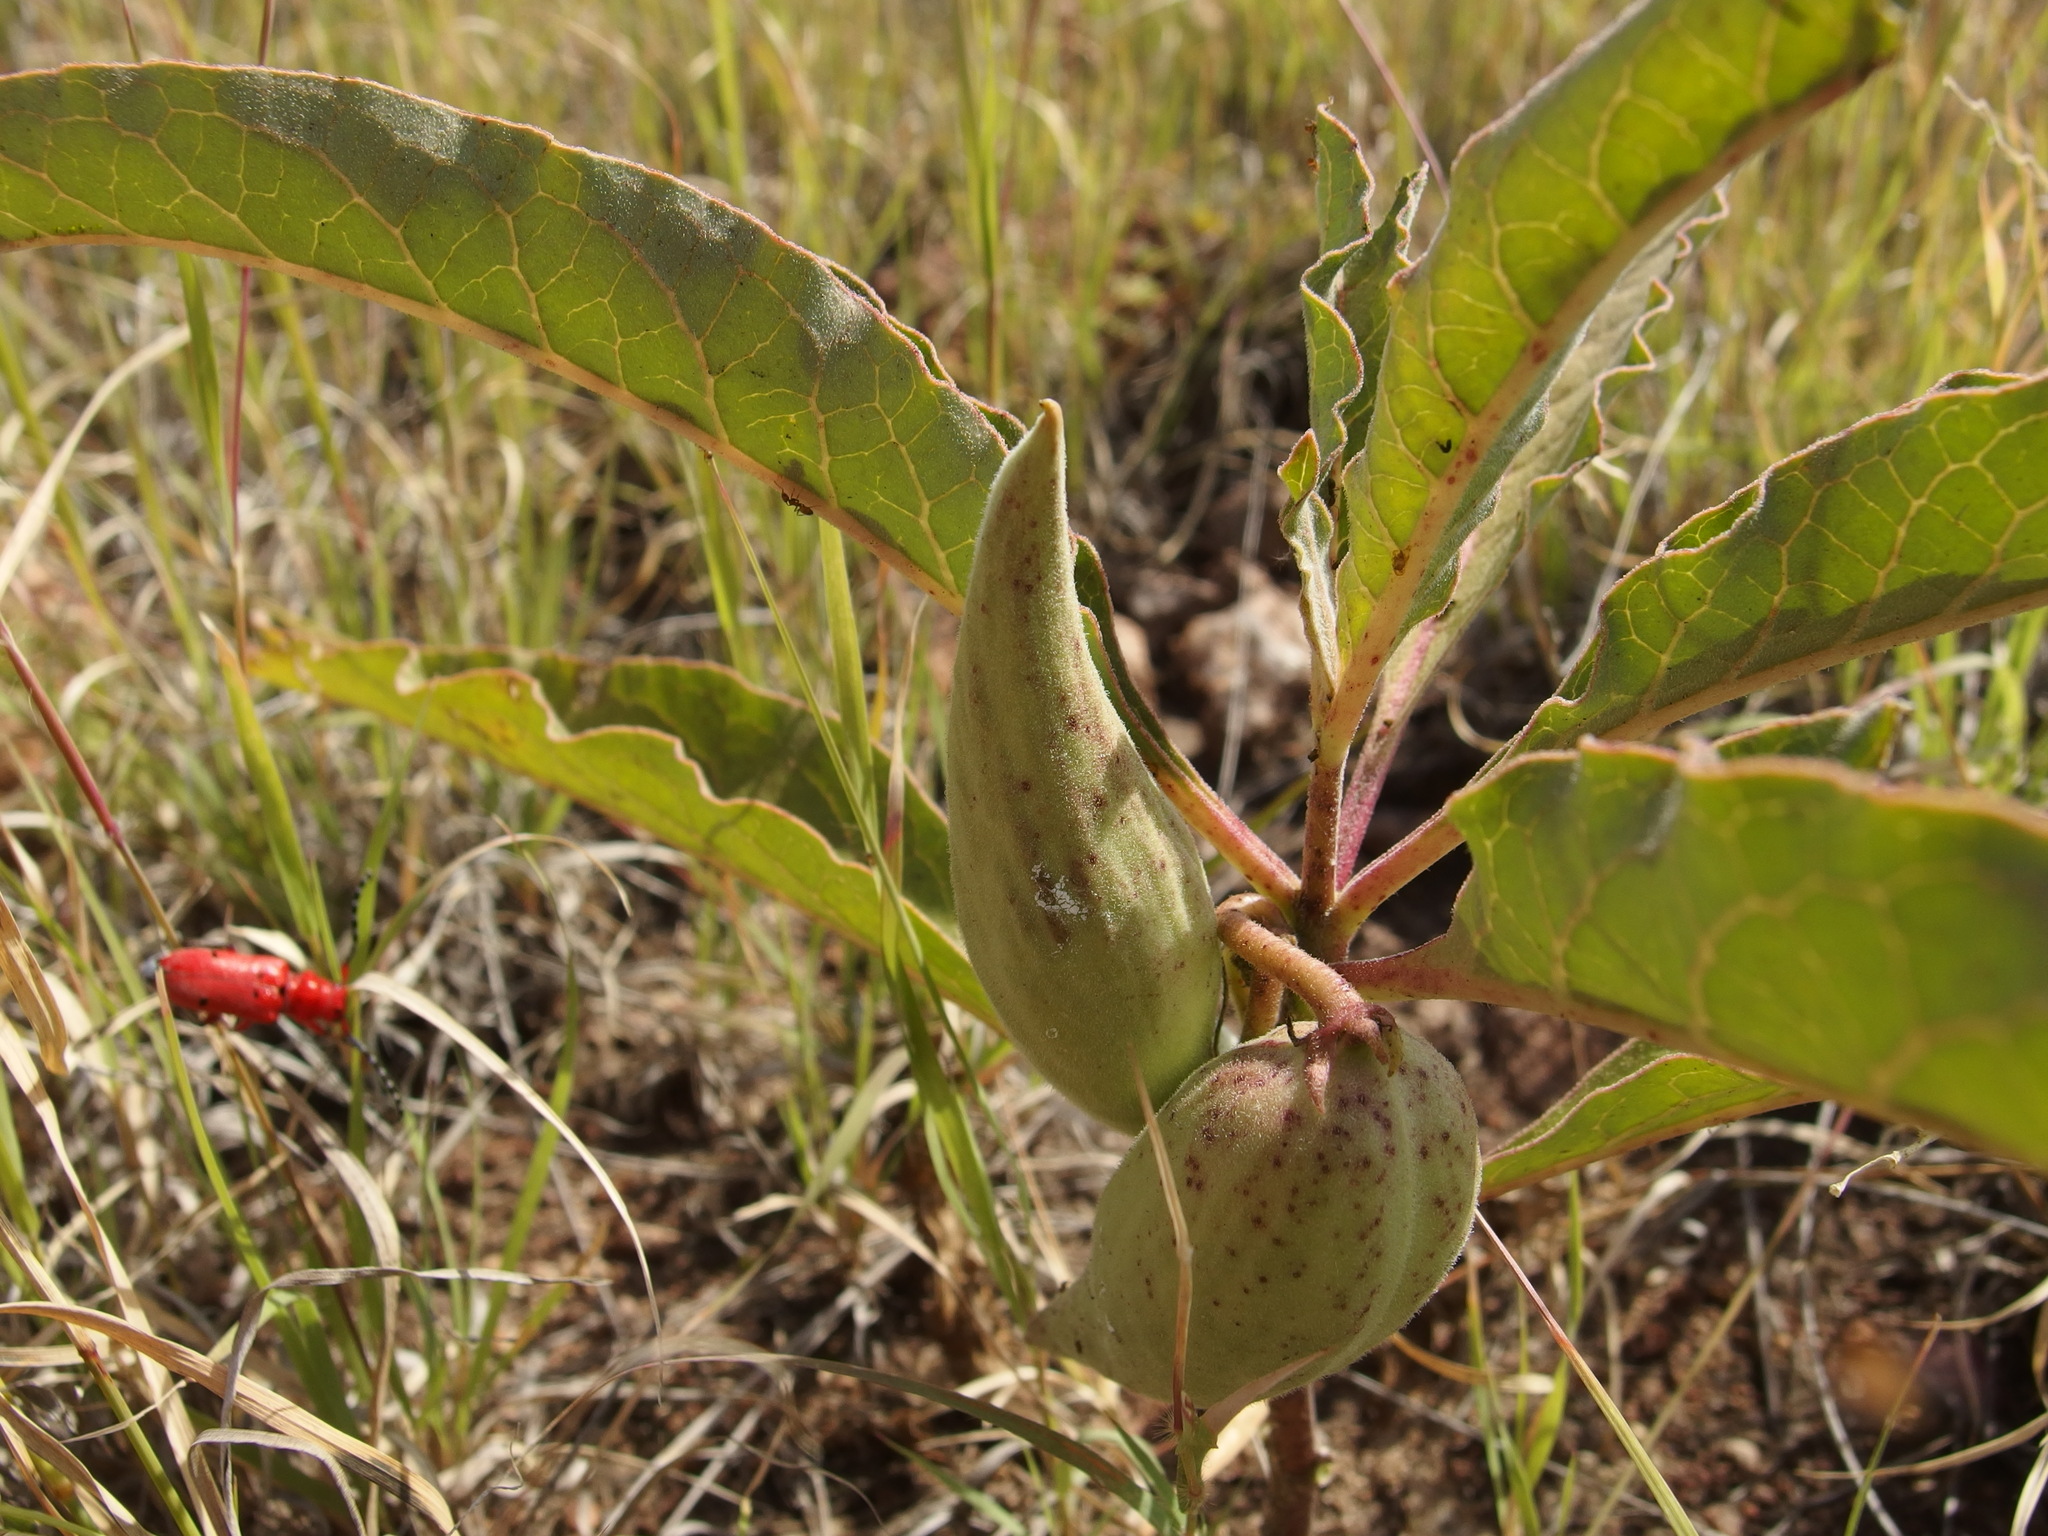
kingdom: Plantae
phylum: Tracheophyta
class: Magnoliopsida
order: Gentianales
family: Apocynaceae
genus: Asclepias
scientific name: Asclepias nyctaginifolia
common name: Mojave milkweed
